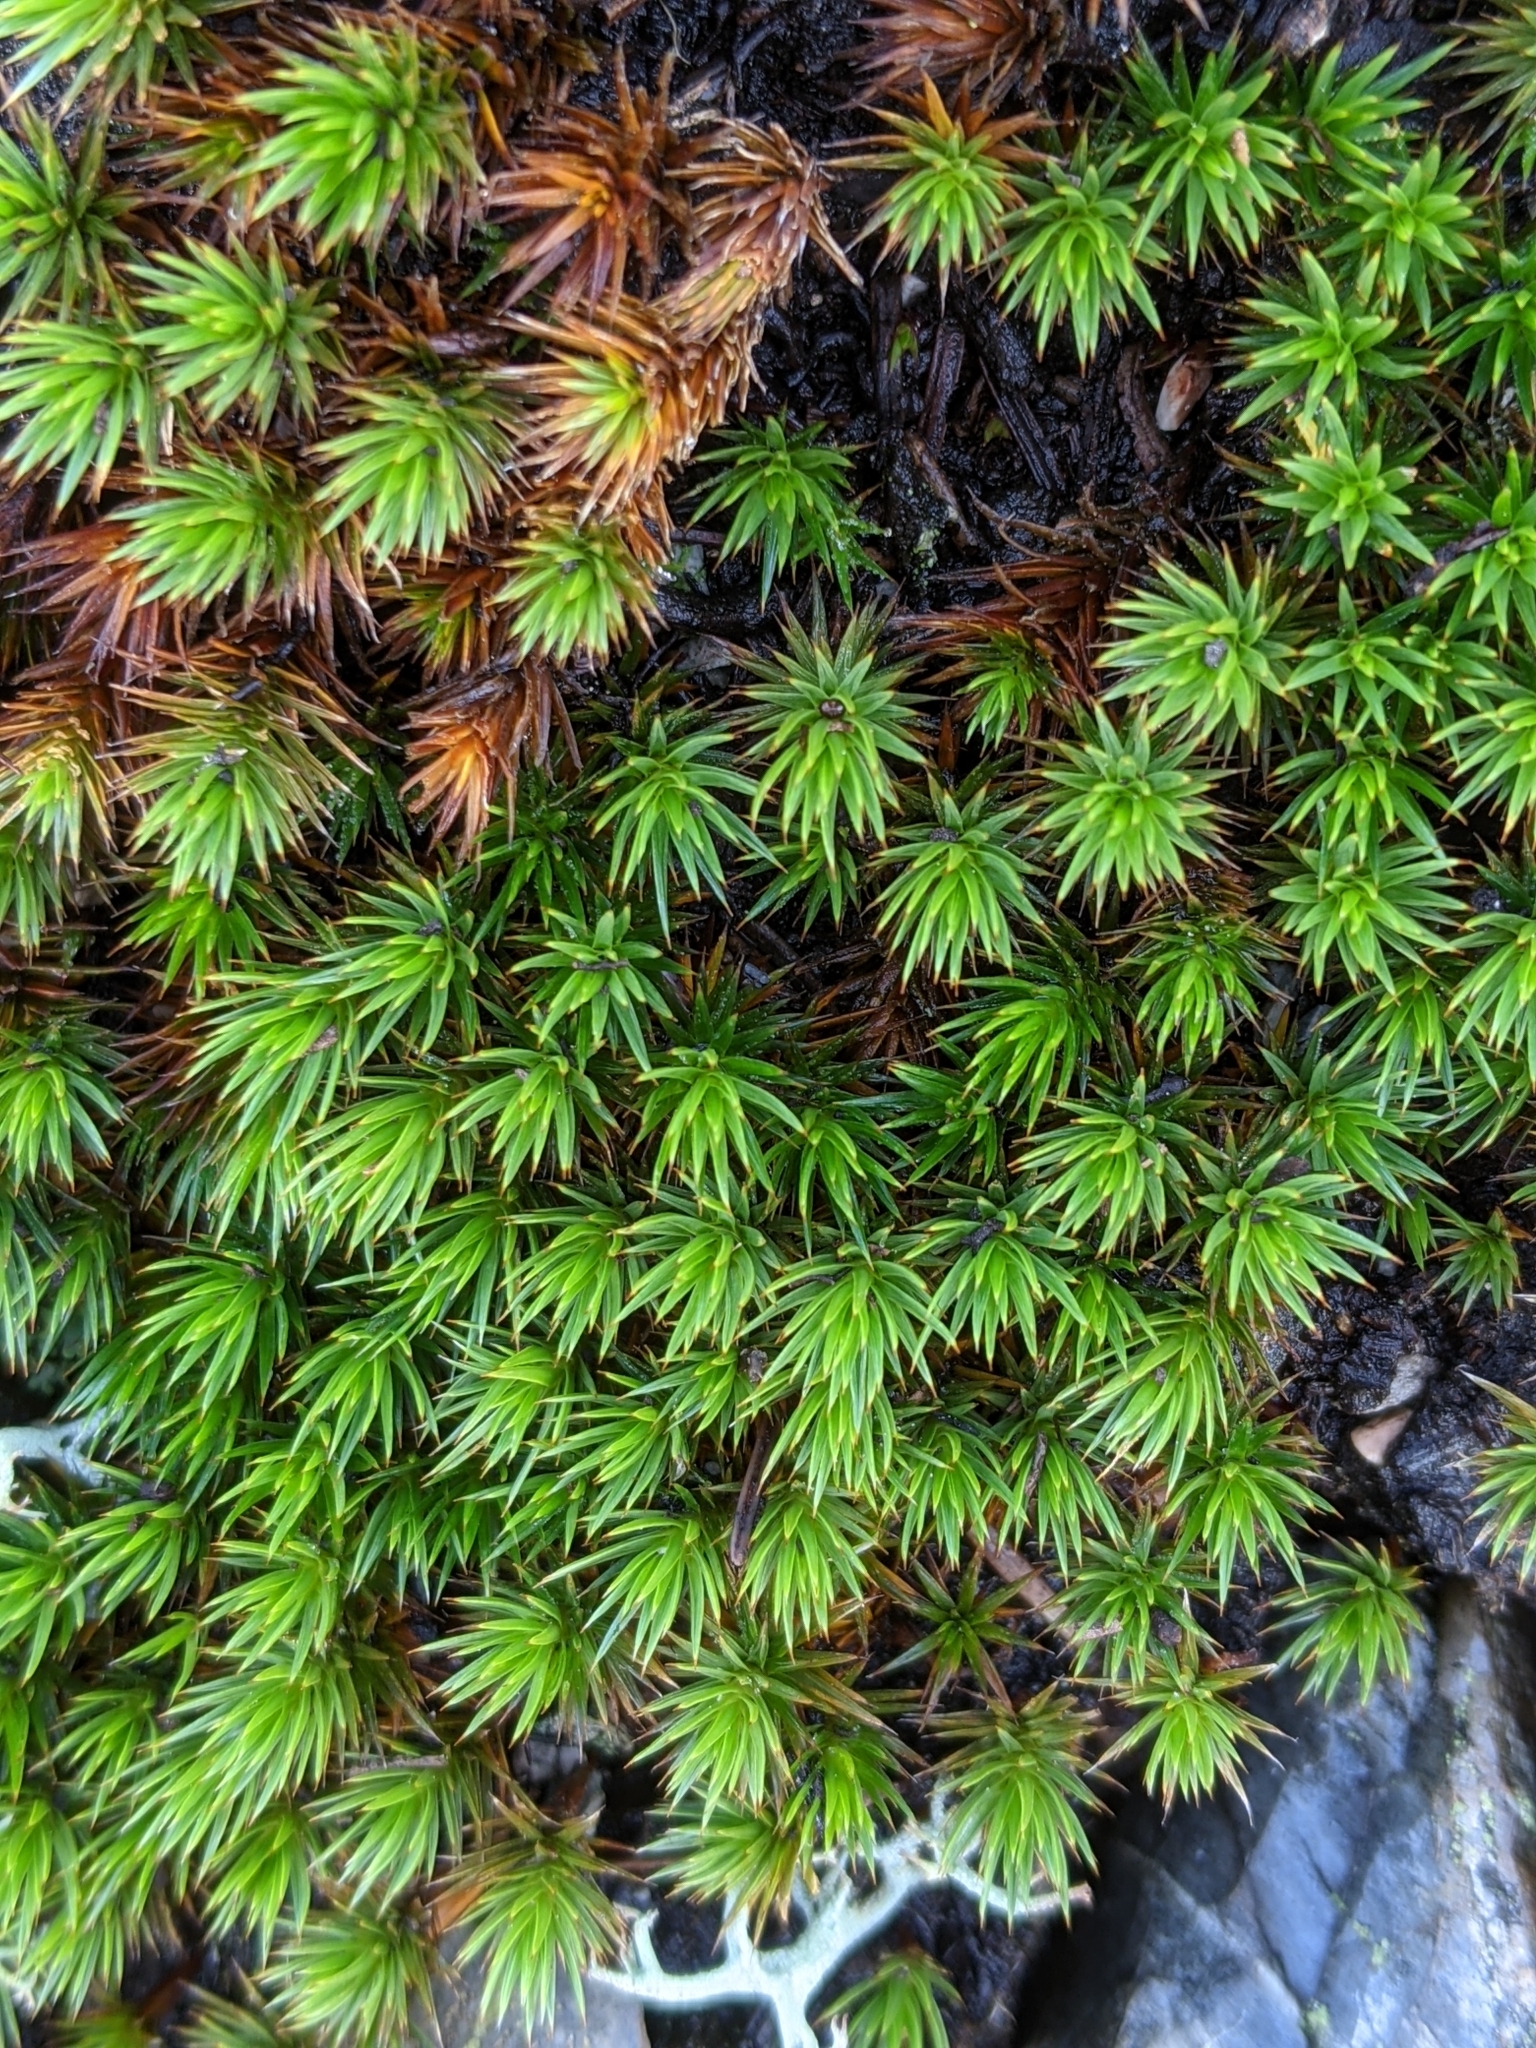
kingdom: Plantae
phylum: Bryophyta
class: Polytrichopsida
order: Polytrichales
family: Polytrichaceae
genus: Polytrichum
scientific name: Polytrichum juniperinum
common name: Juniper haircap moss
